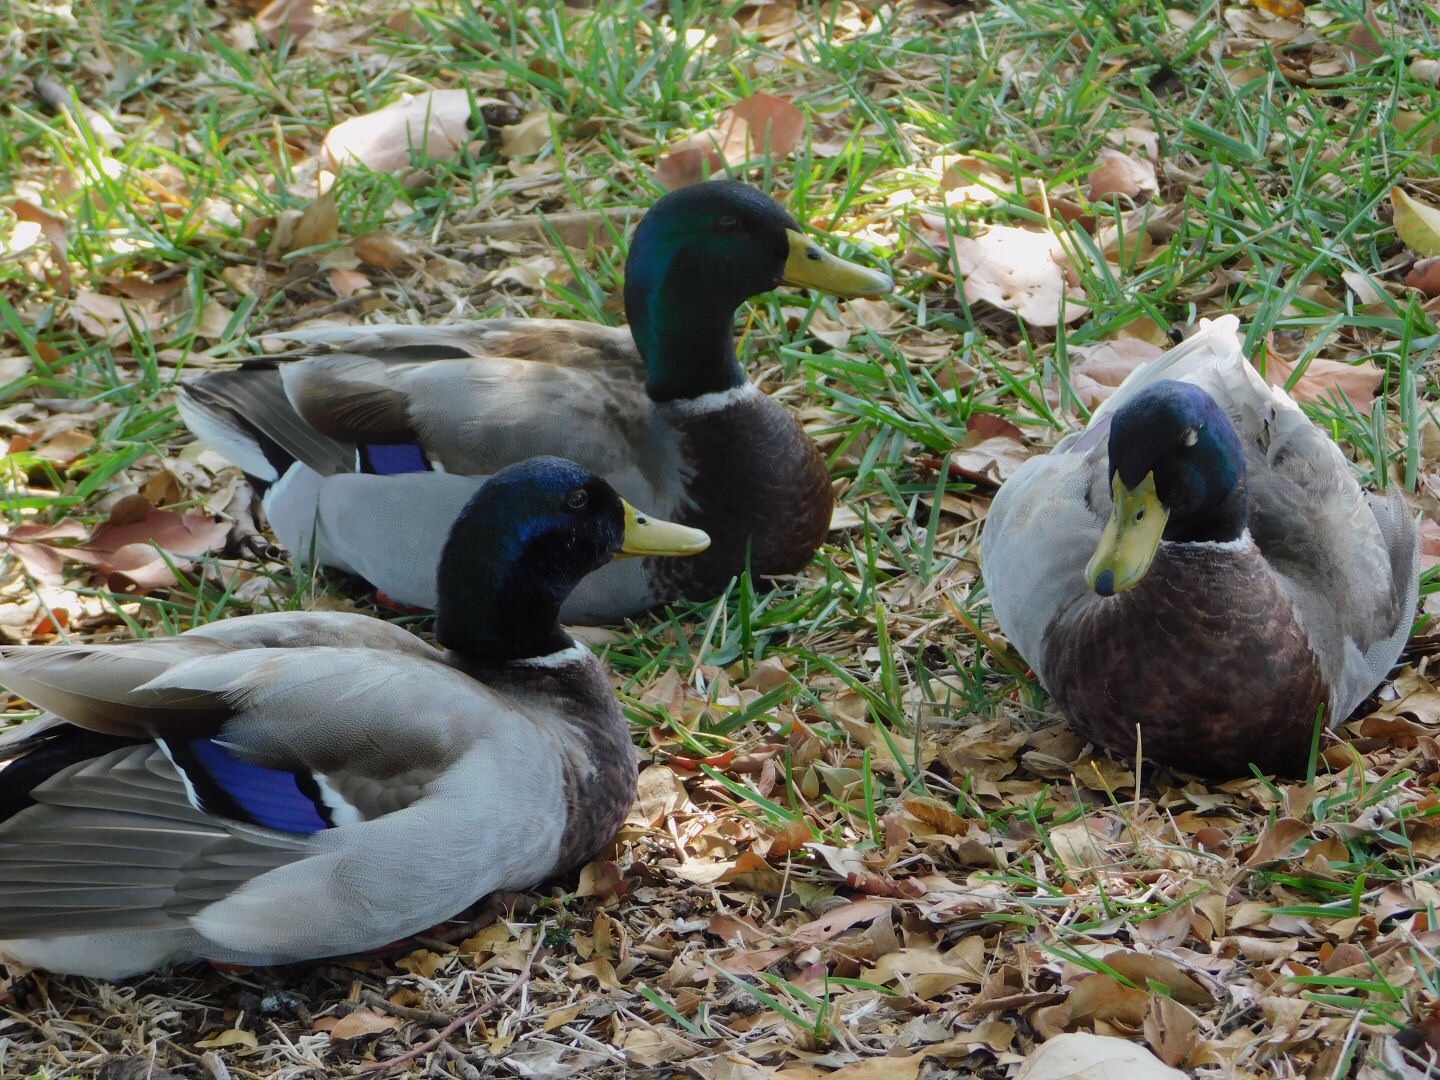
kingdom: Animalia
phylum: Chordata
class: Aves
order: Anseriformes
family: Anatidae
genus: Anas
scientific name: Anas platyrhynchos
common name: Mallard
